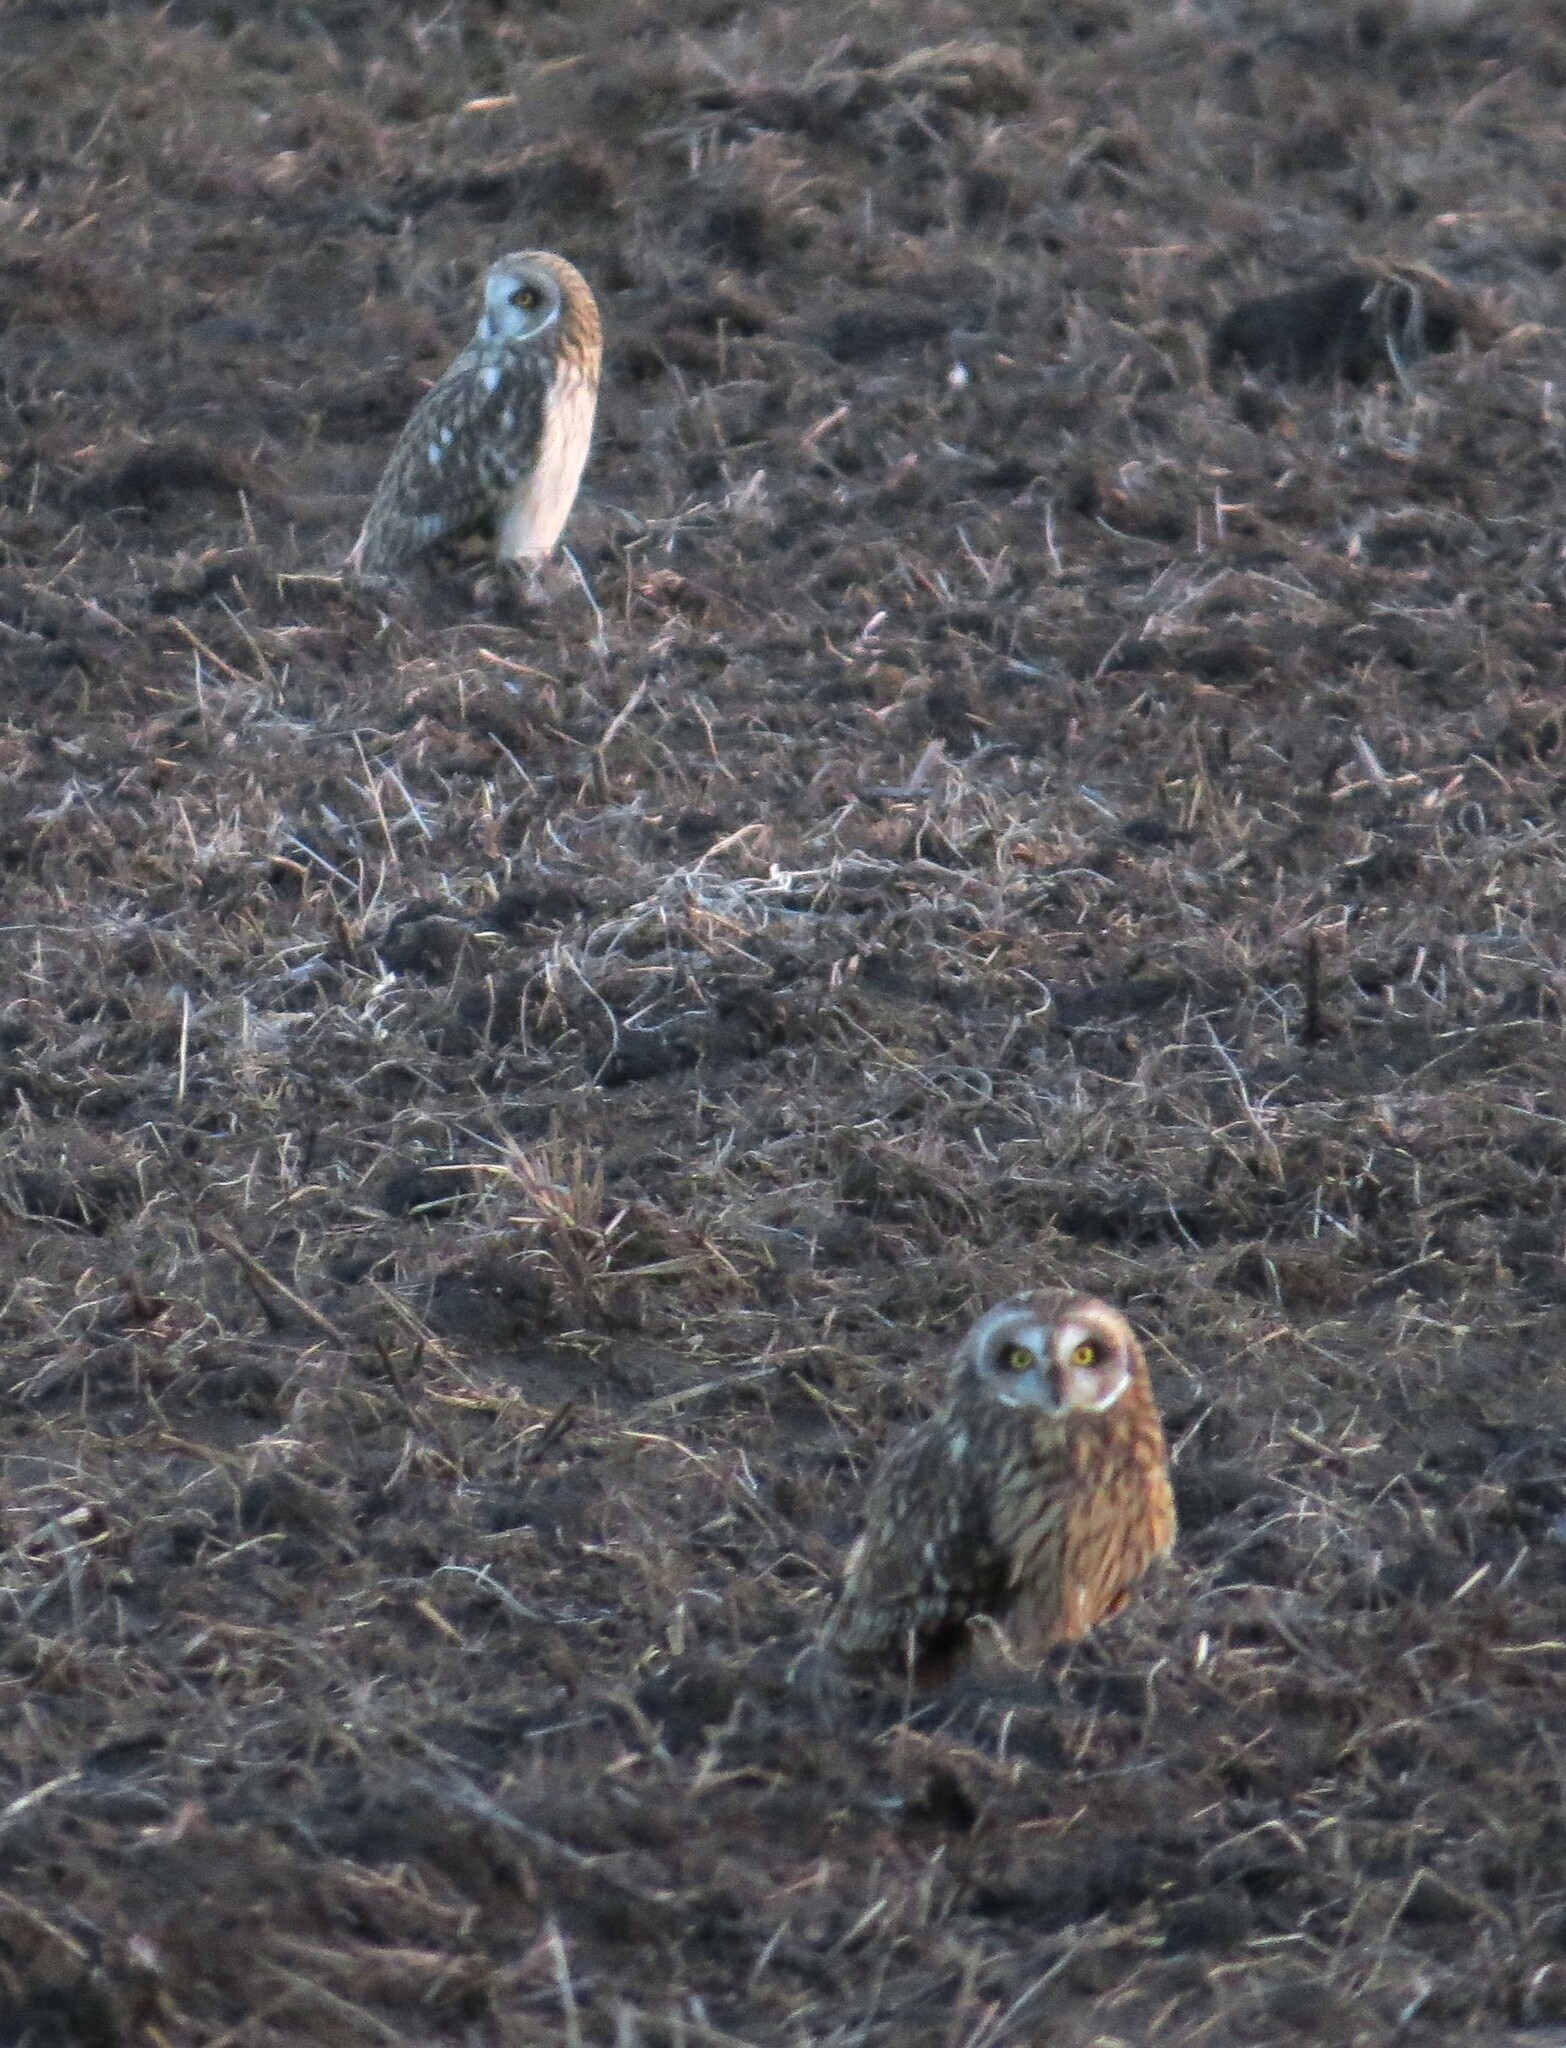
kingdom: Animalia
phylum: Chordata
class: Aves
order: Strigiformes
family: Strigidae
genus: Asio
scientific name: Asio flammeus
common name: Short-eared owl
